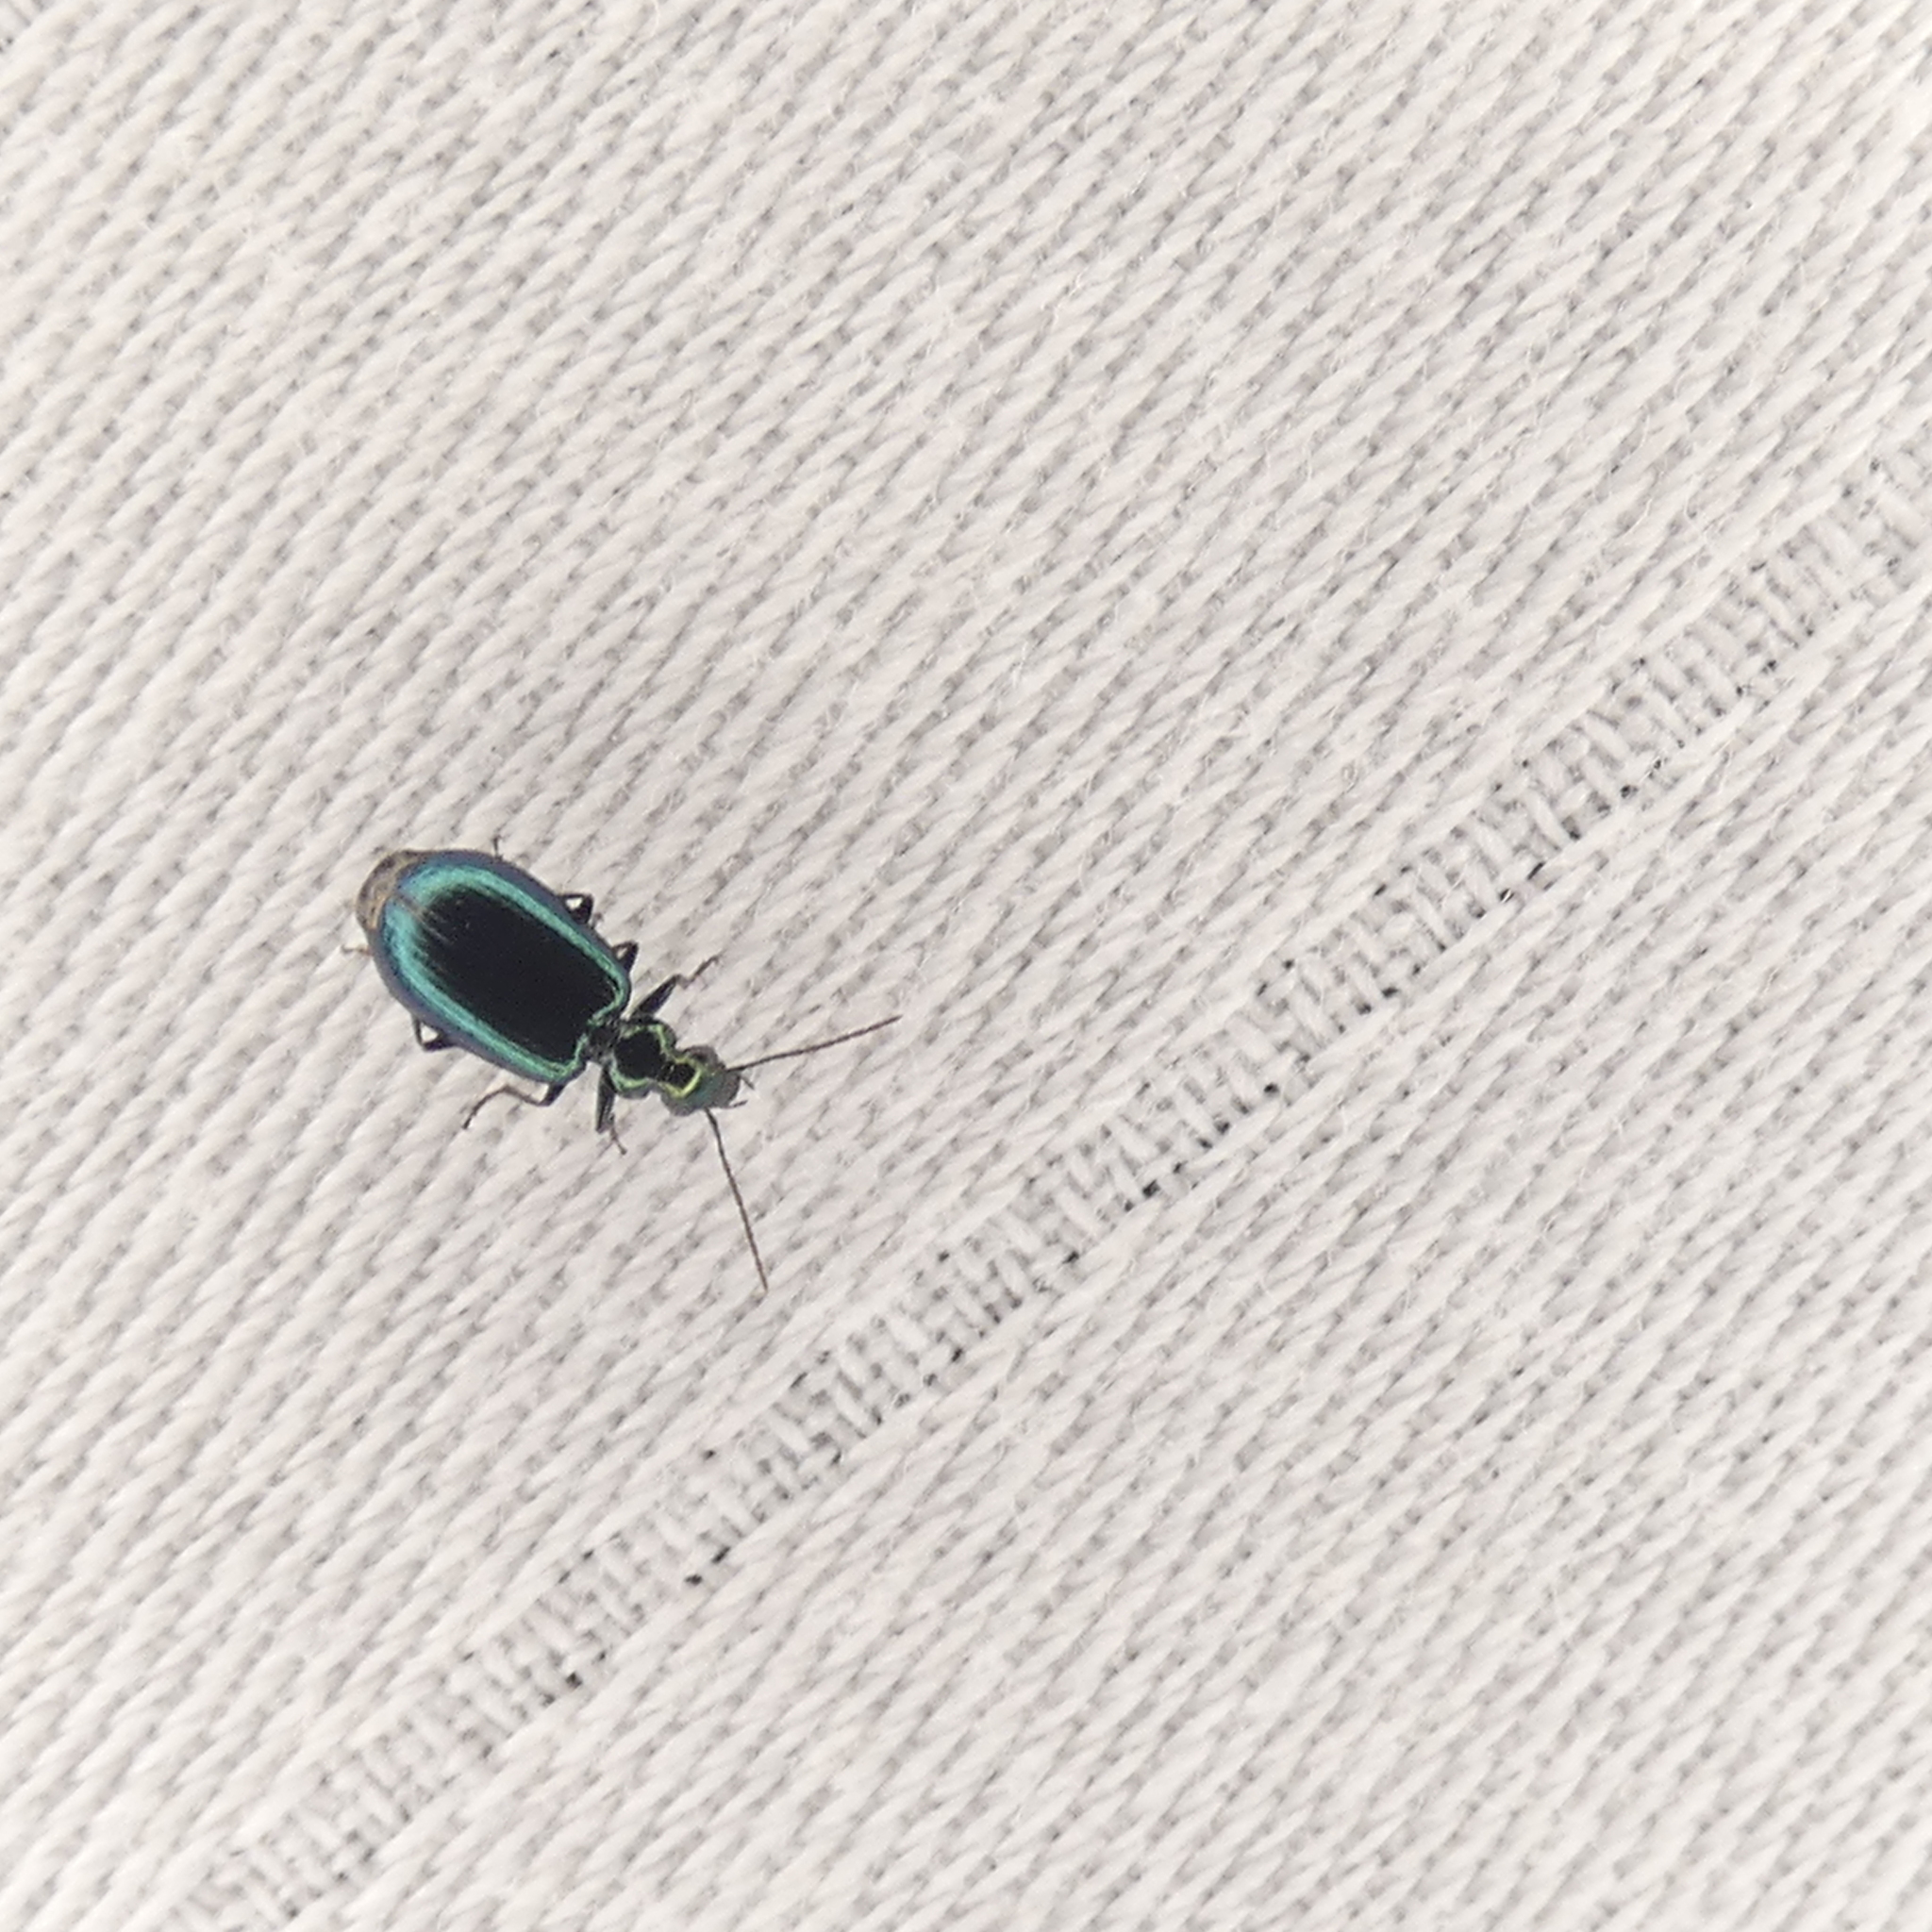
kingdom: Animalia
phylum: Arthropoda
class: Insecta
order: Coleoptera
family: Carabidae
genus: Lebia
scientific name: Lebia viridis
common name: Flower lebia beetle
